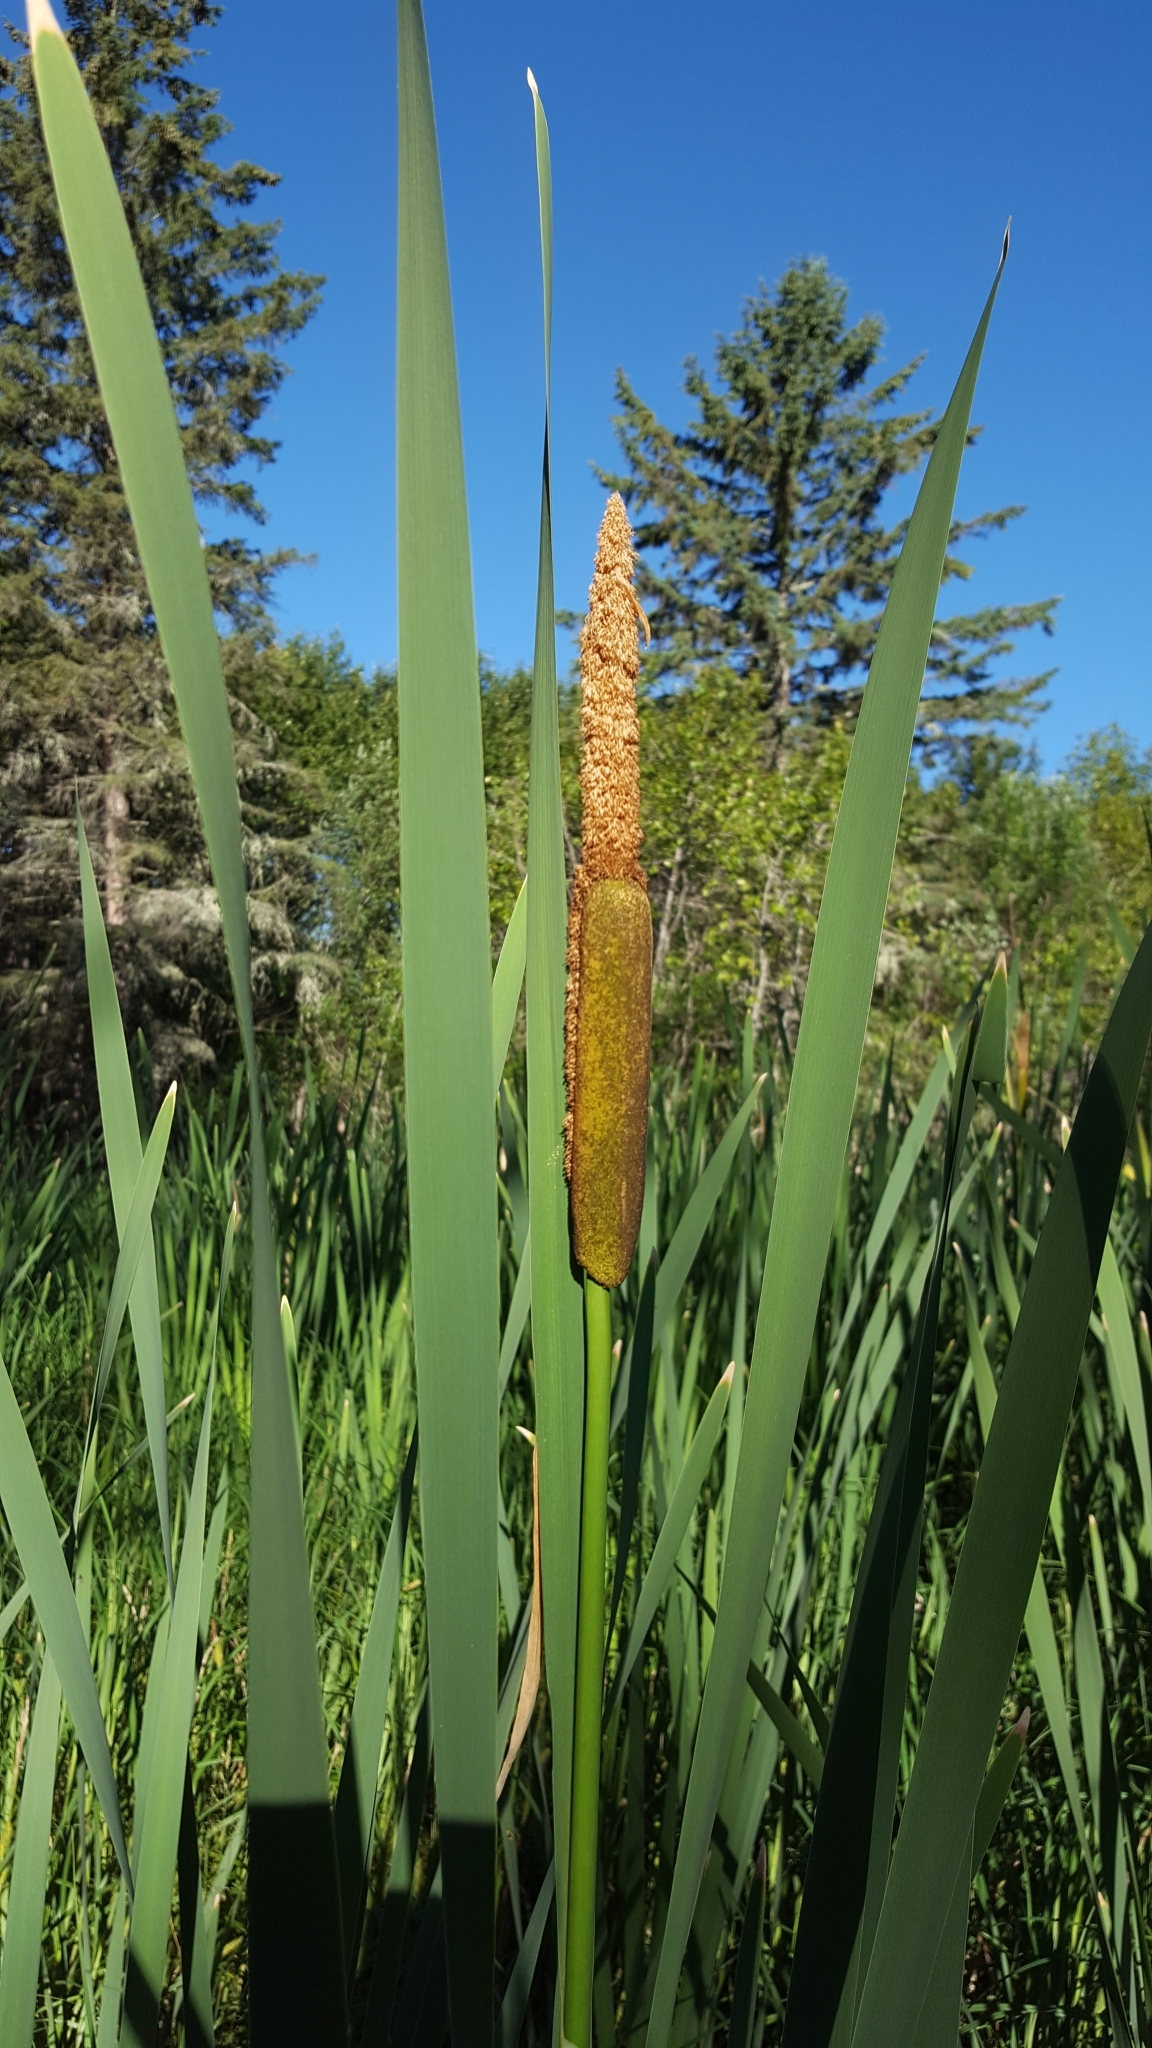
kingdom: Plantae
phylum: Tracheophyta
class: Liliopsida
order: Poales
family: Typhaceae
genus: Typha
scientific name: Typha latifolia
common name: Broadleaf cattail
